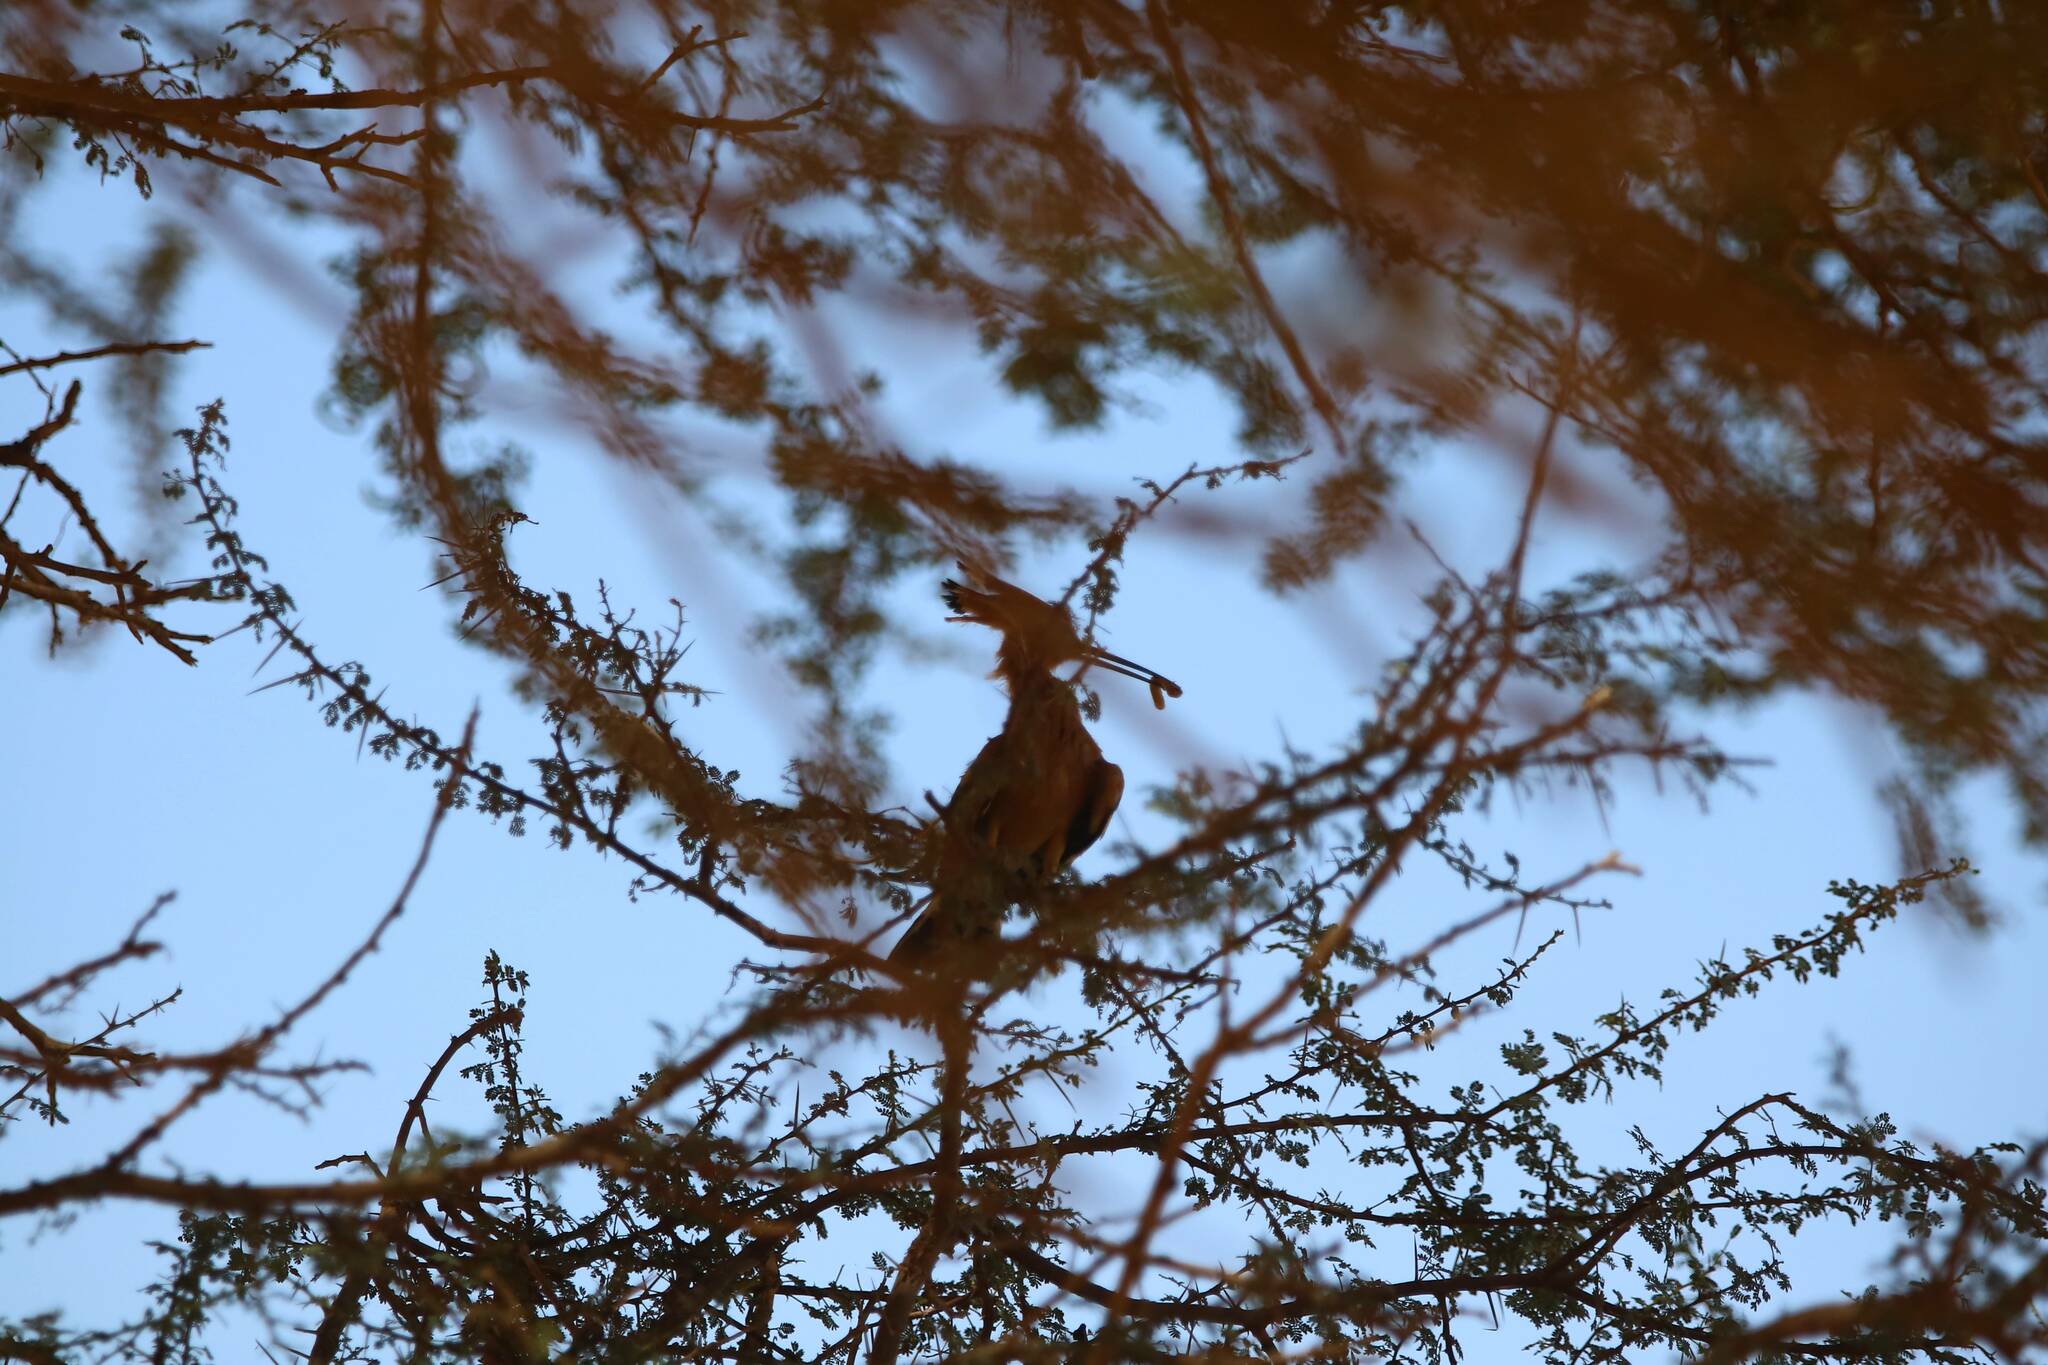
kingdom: Animalia
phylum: Chordata
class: Aves
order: Bucerotiformes
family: Upupidae
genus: Upupa
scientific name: Upupa epops
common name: Eurasian hoopoe
